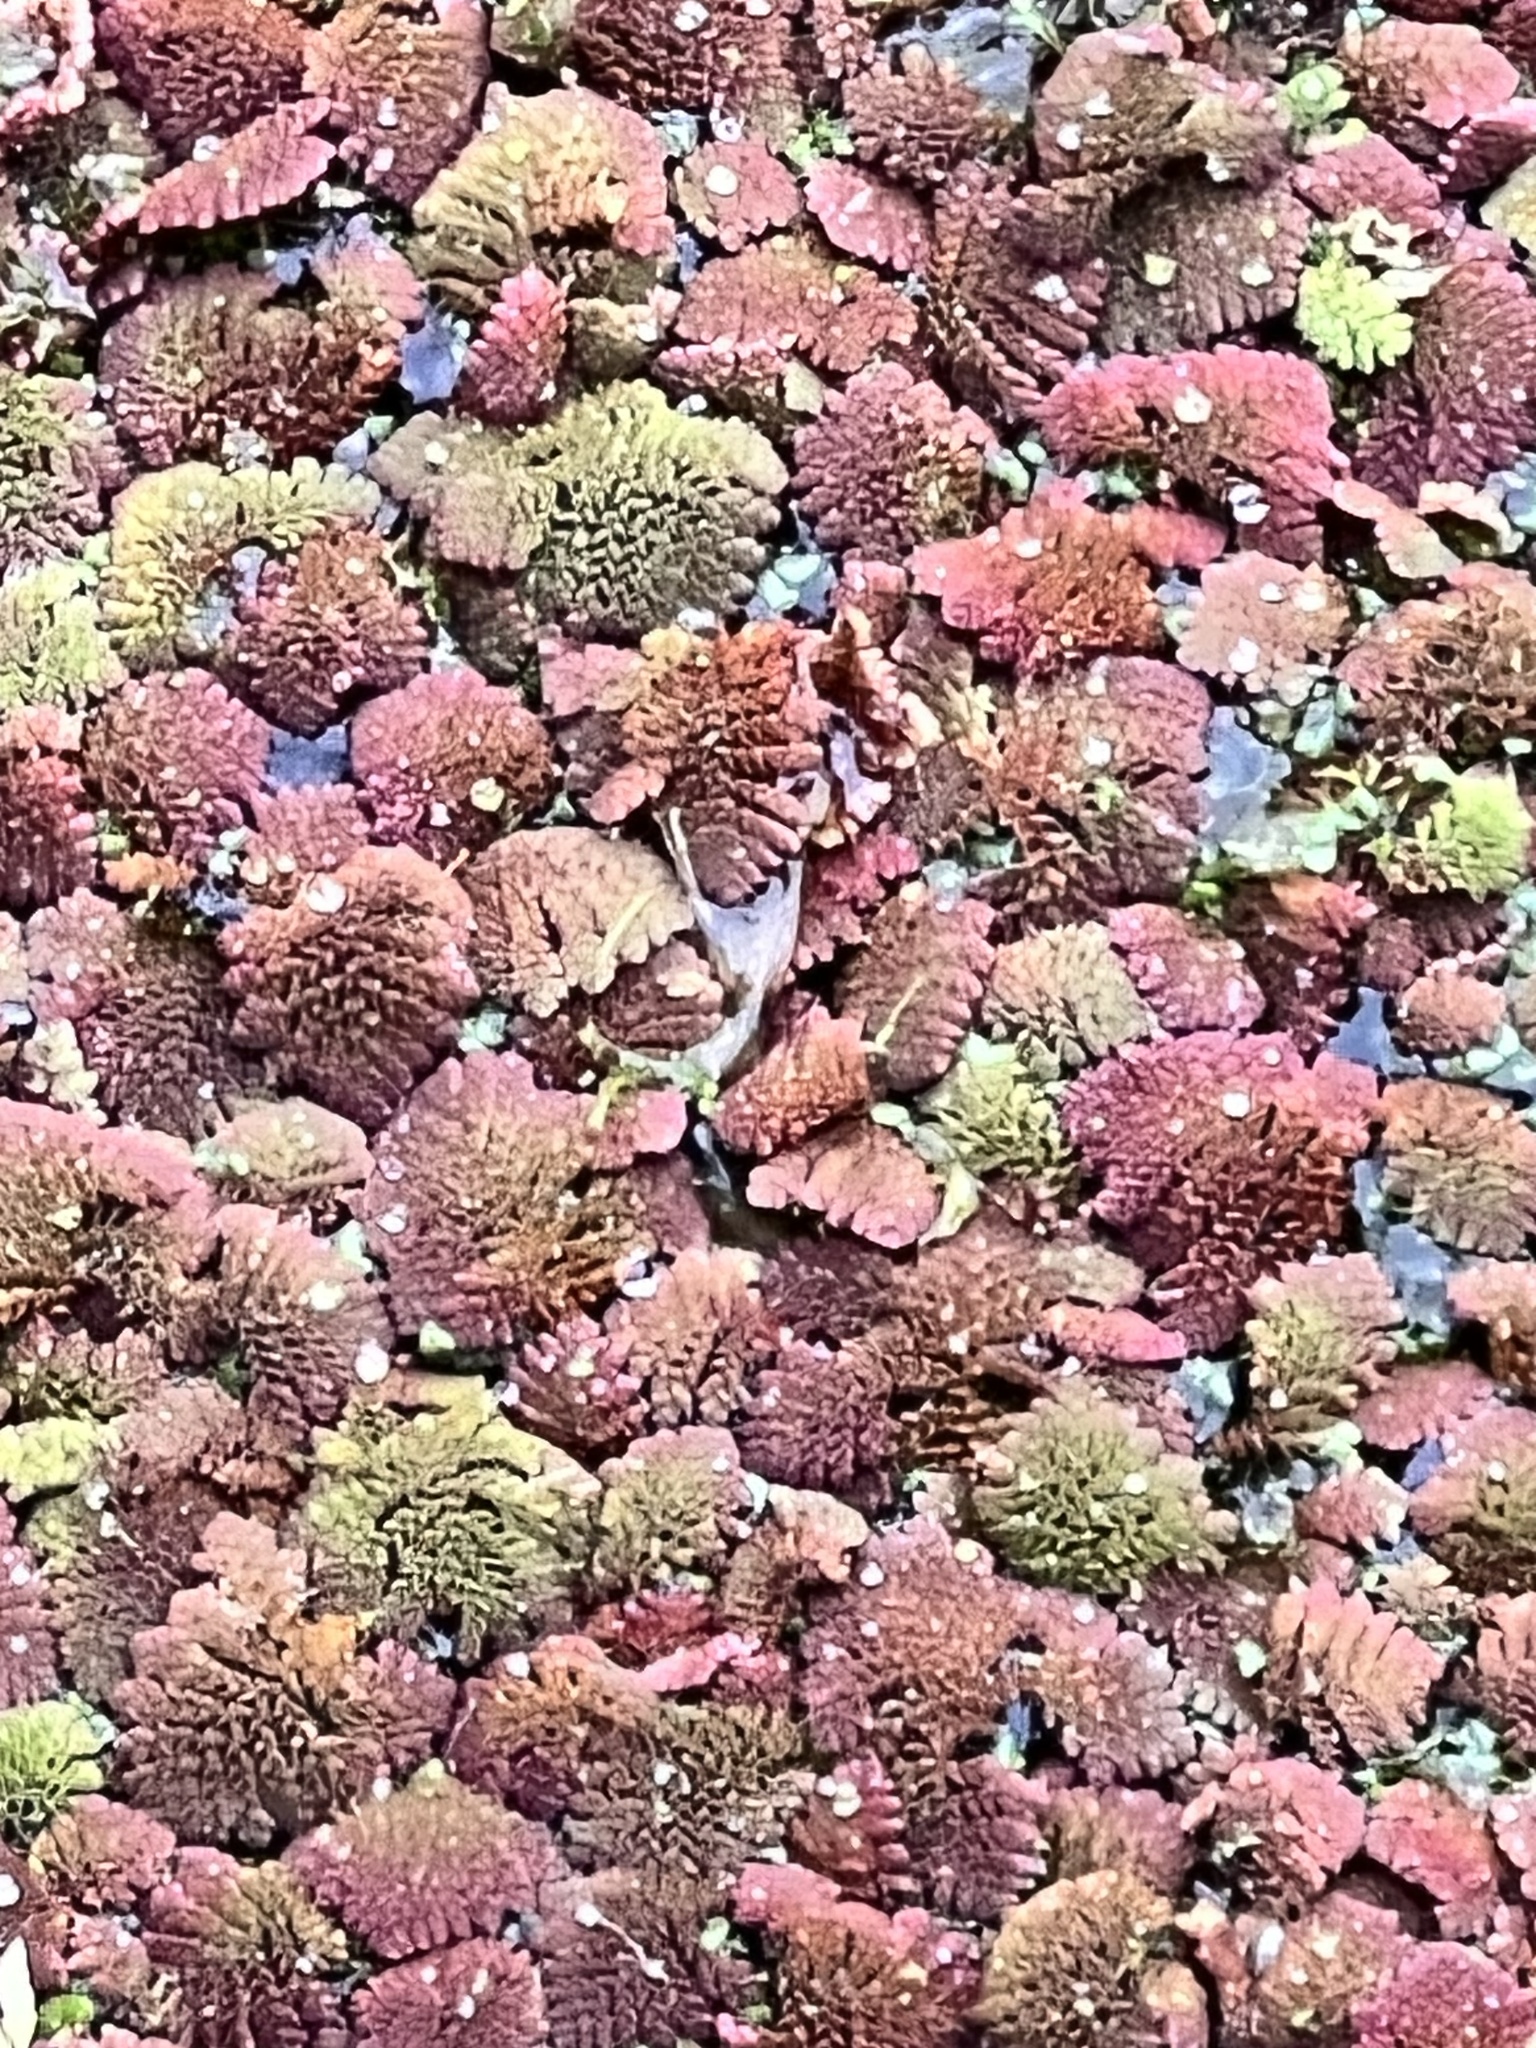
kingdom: Plantae
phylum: Tracheophyta
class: Polypodiopsida
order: Salviniales
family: Salviniaceae
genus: Azolla
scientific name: Azolla pinnata
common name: Ferny azolla
